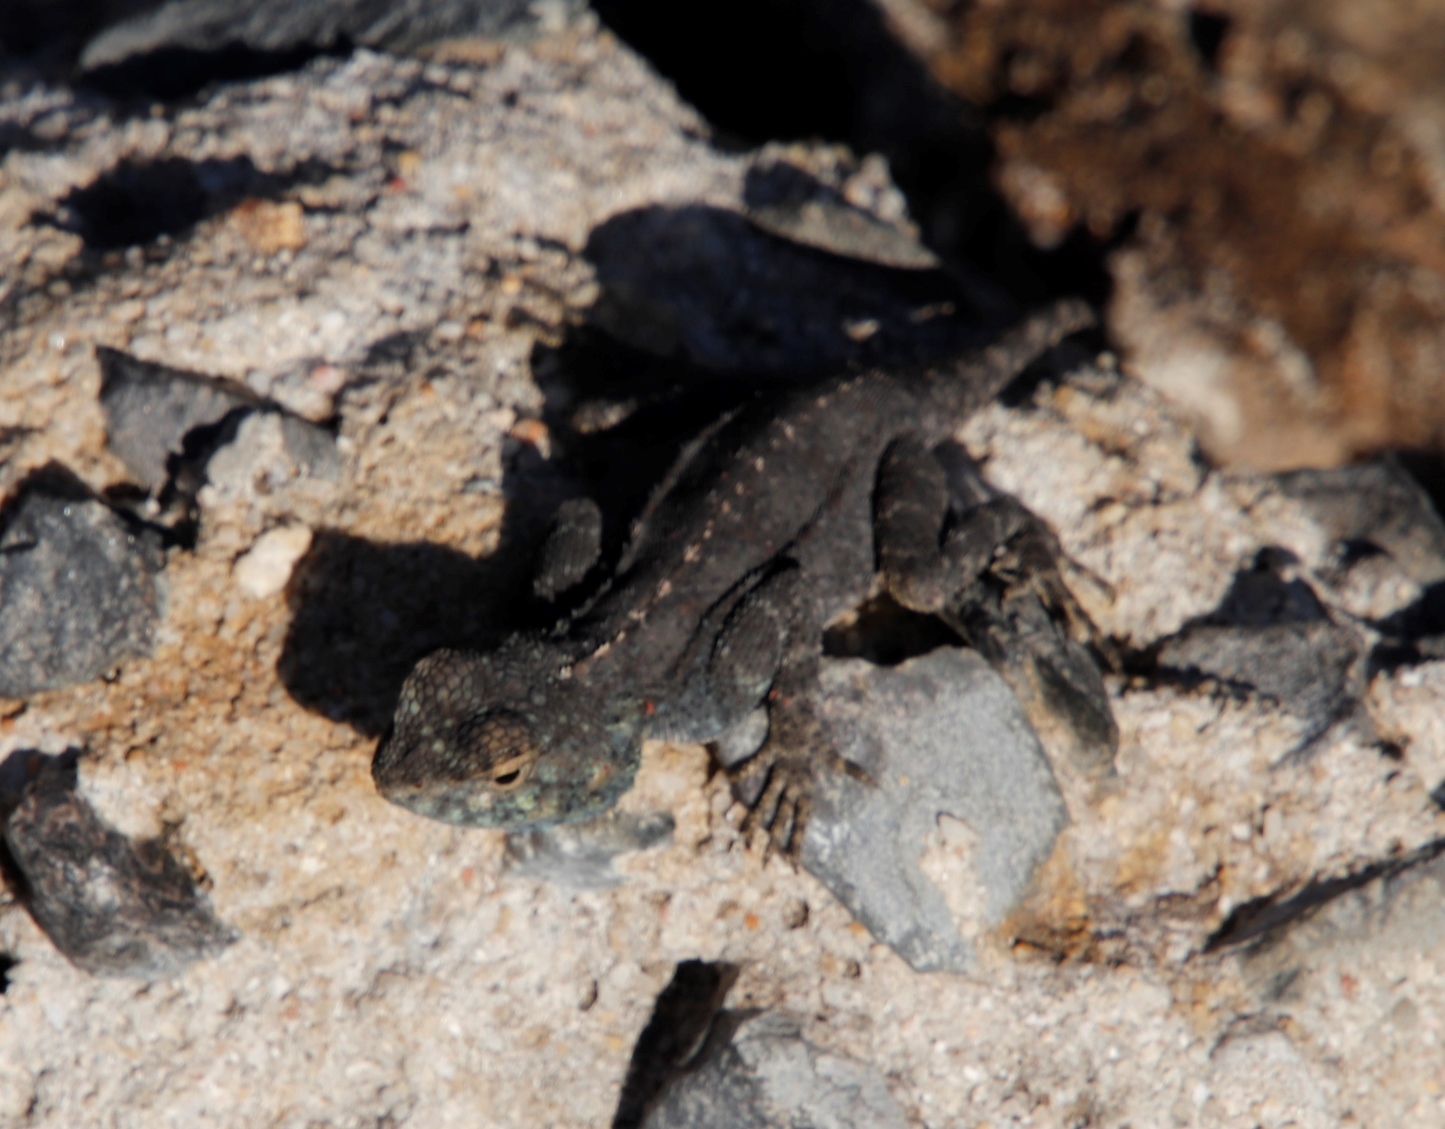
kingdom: Animalia
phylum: Chordata
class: Squamata
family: Agamidae
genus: Agama
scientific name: Agama atra
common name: Southern african rock agama
